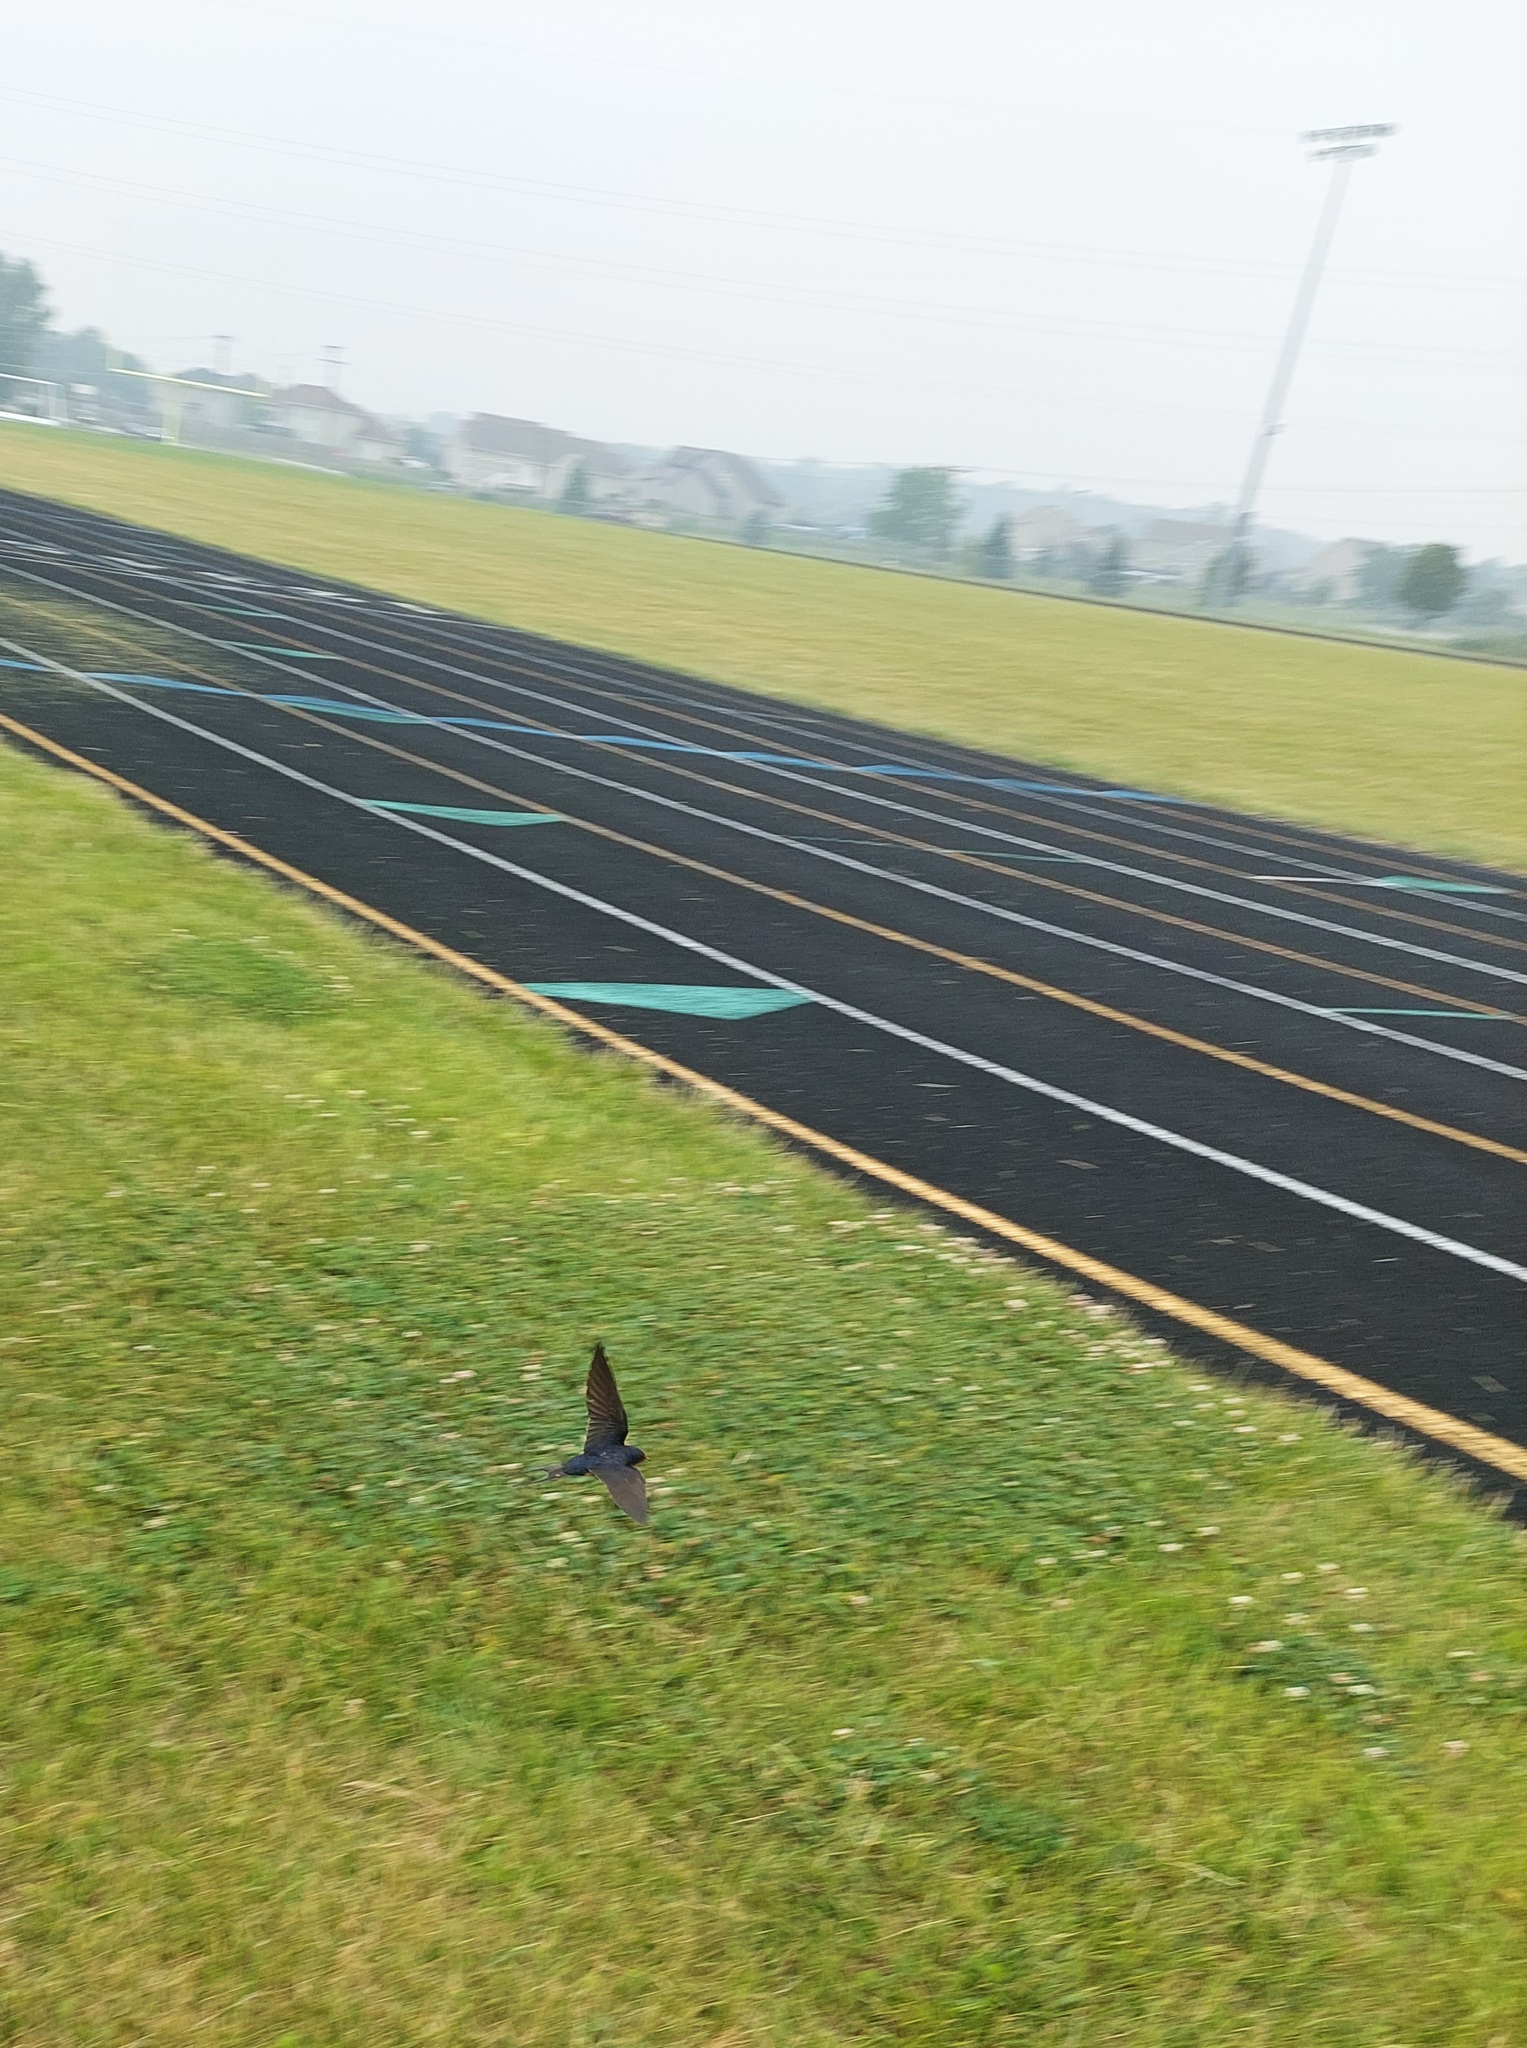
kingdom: Animalia
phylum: Chordata
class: Aves
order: Passeriformes
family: Hirundinidae
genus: Hirundo
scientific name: Hirundo rustica
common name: Barn swallow
